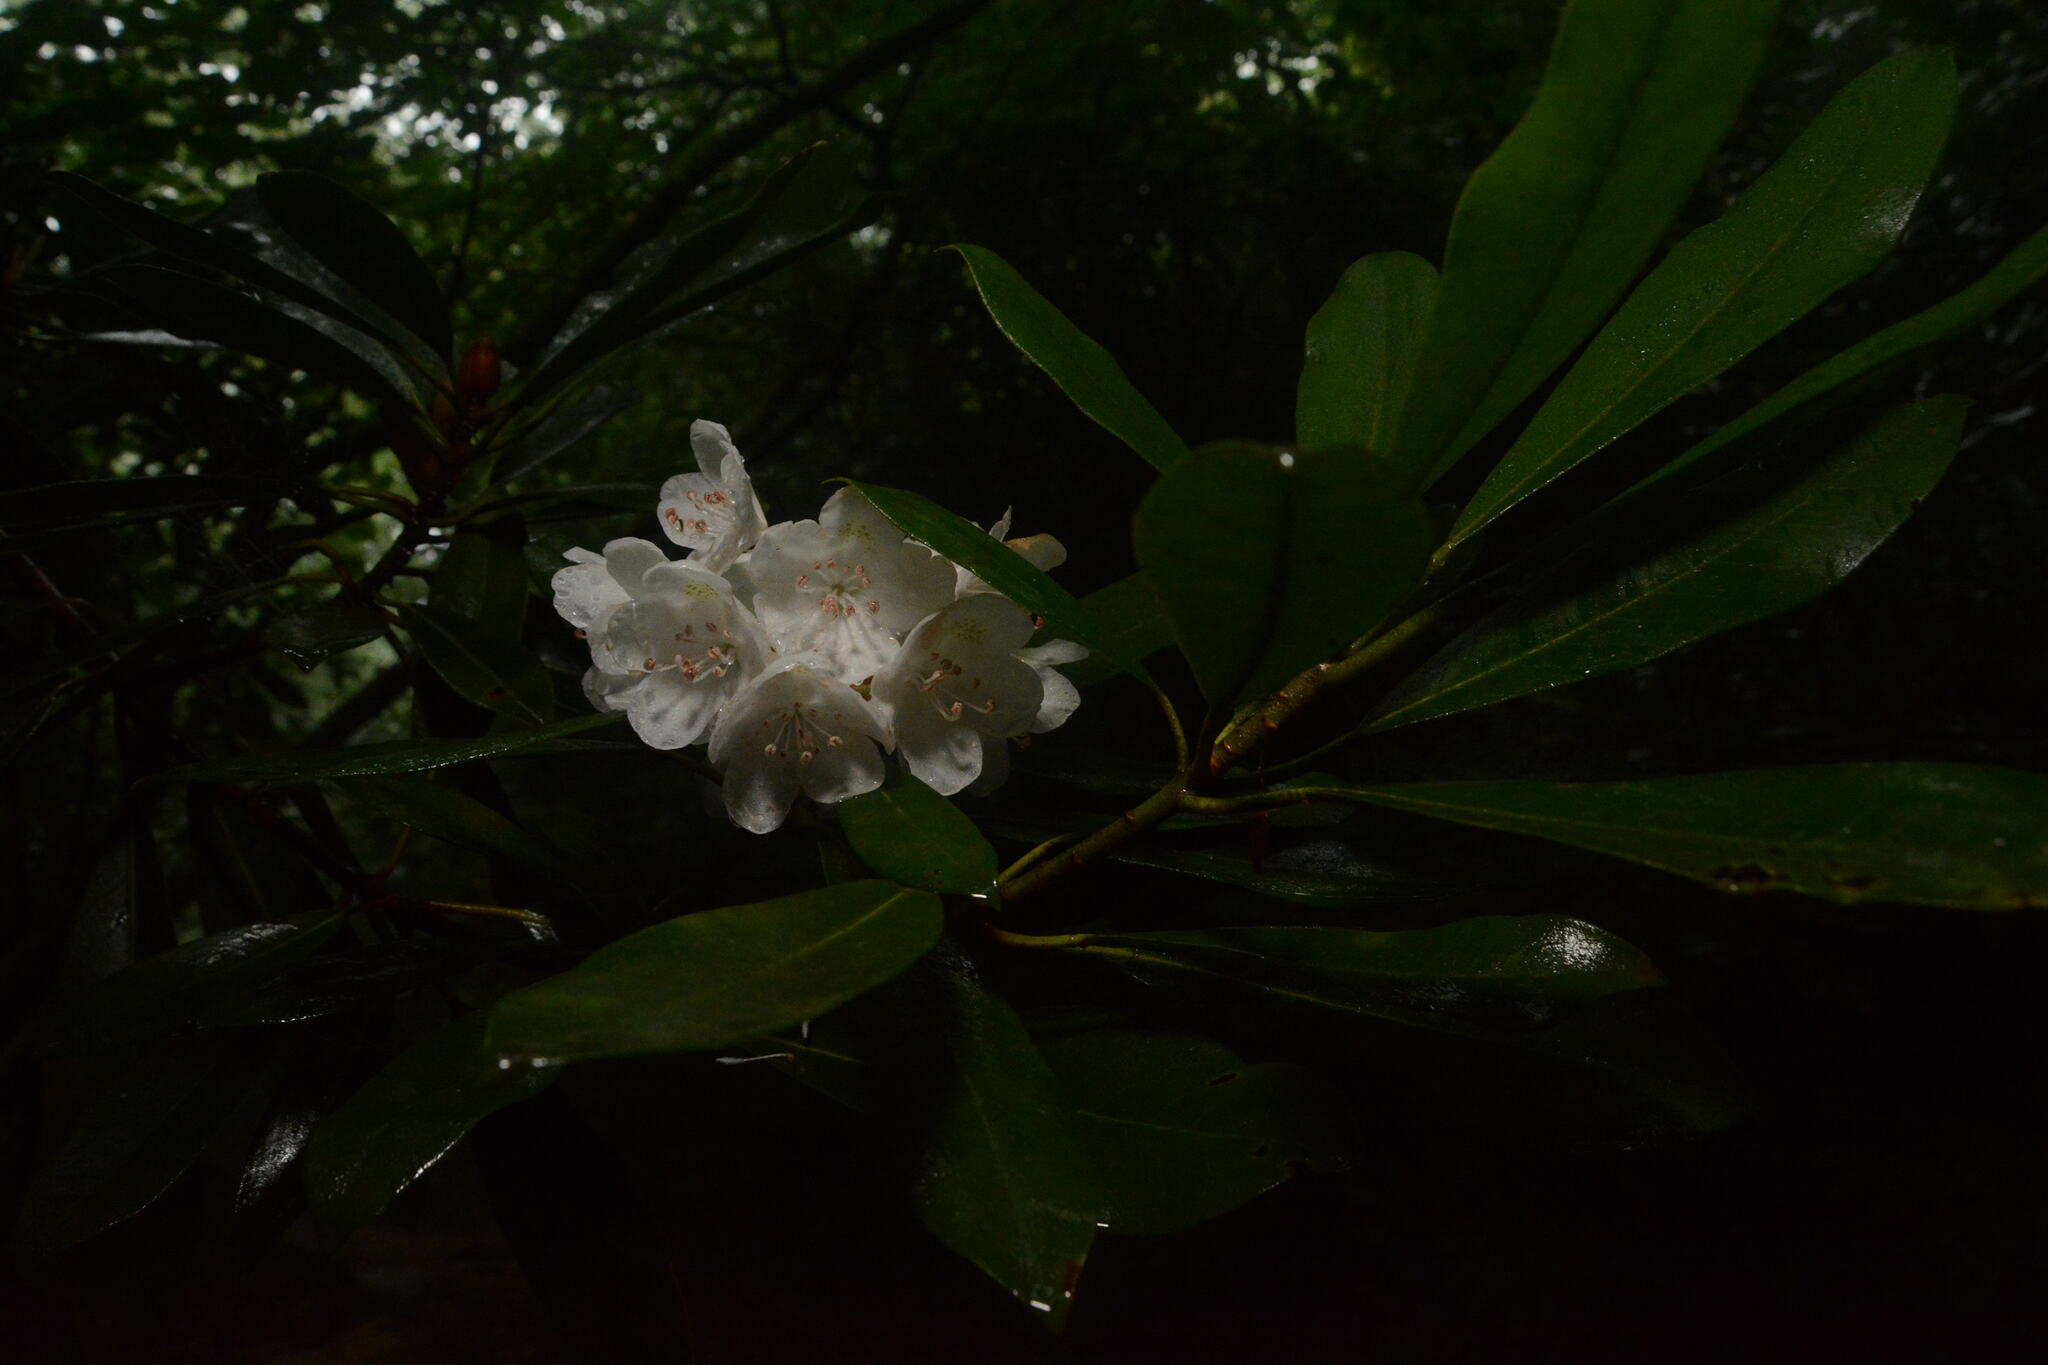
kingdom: Plantae
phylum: Tracheophyta
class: Magnoliopsida
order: Ericales
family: Ericaceae
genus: Rhododendron
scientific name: Rhododendron maximum
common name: Great rhododendron
